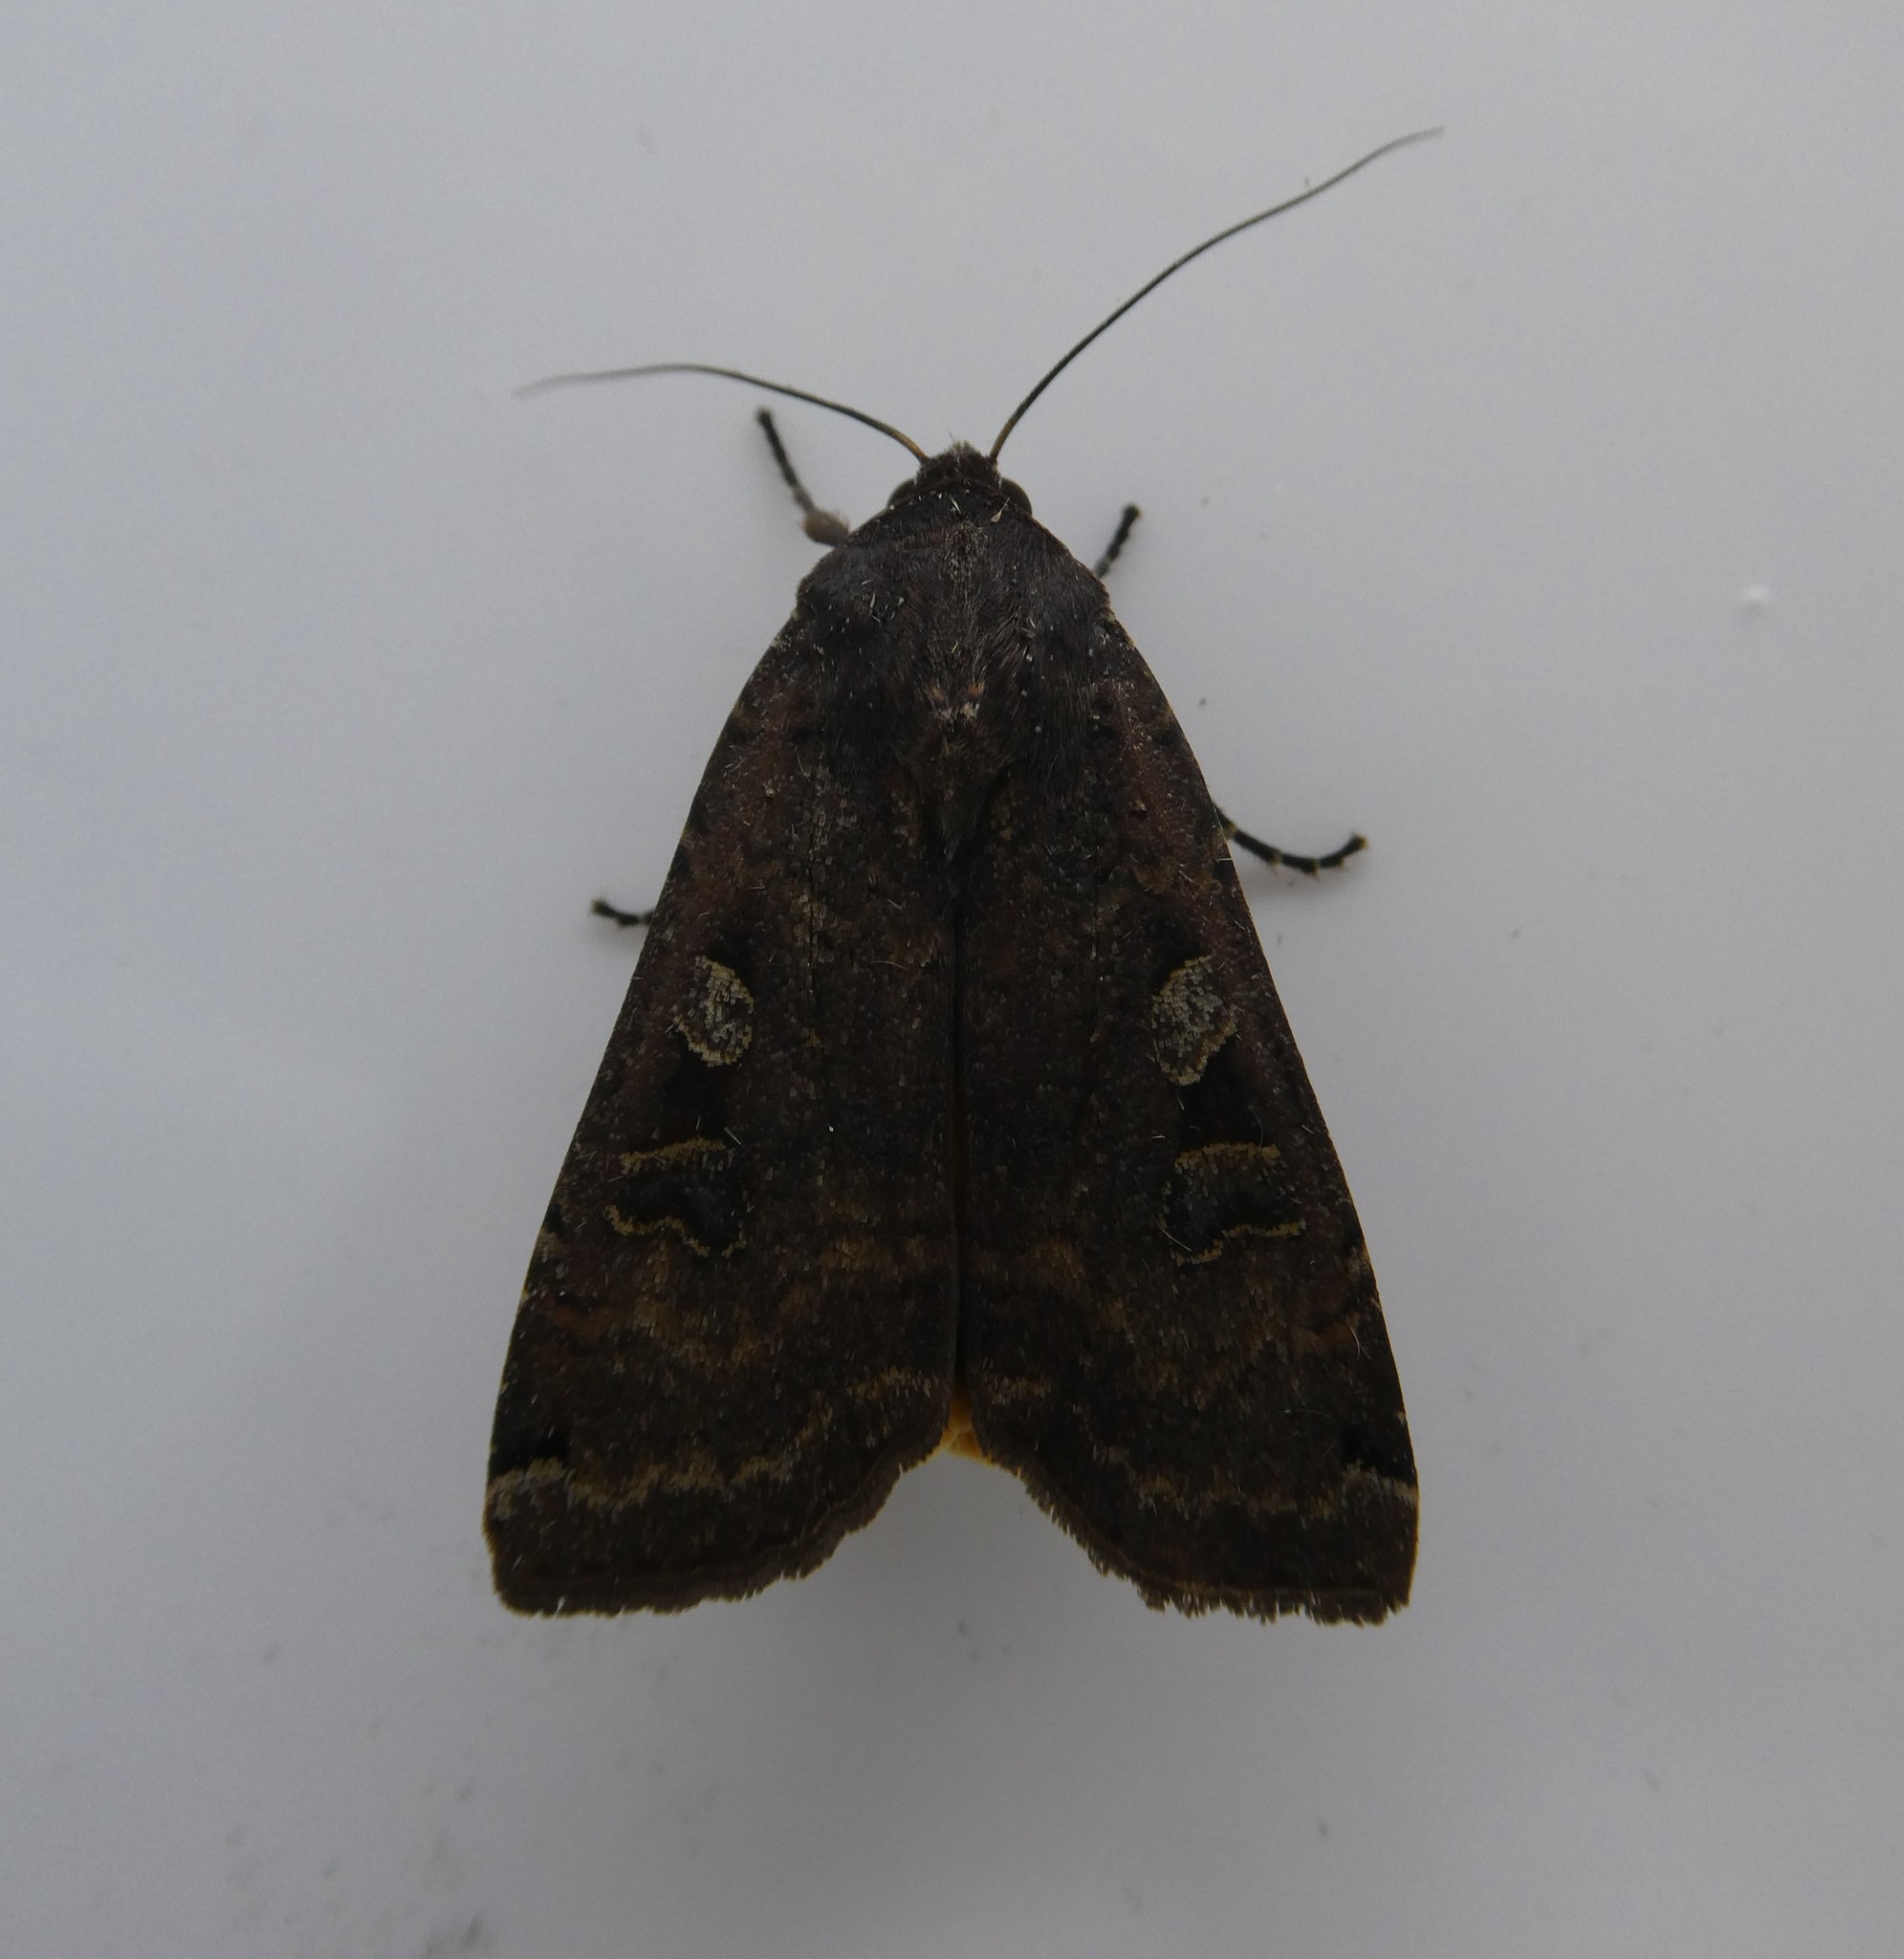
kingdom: Animalia
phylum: Arthropoda
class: Insecta
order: Lepidoptera
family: Noctuidae
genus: Noctua
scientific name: Noctua pronuba
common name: Large yellow underwing
